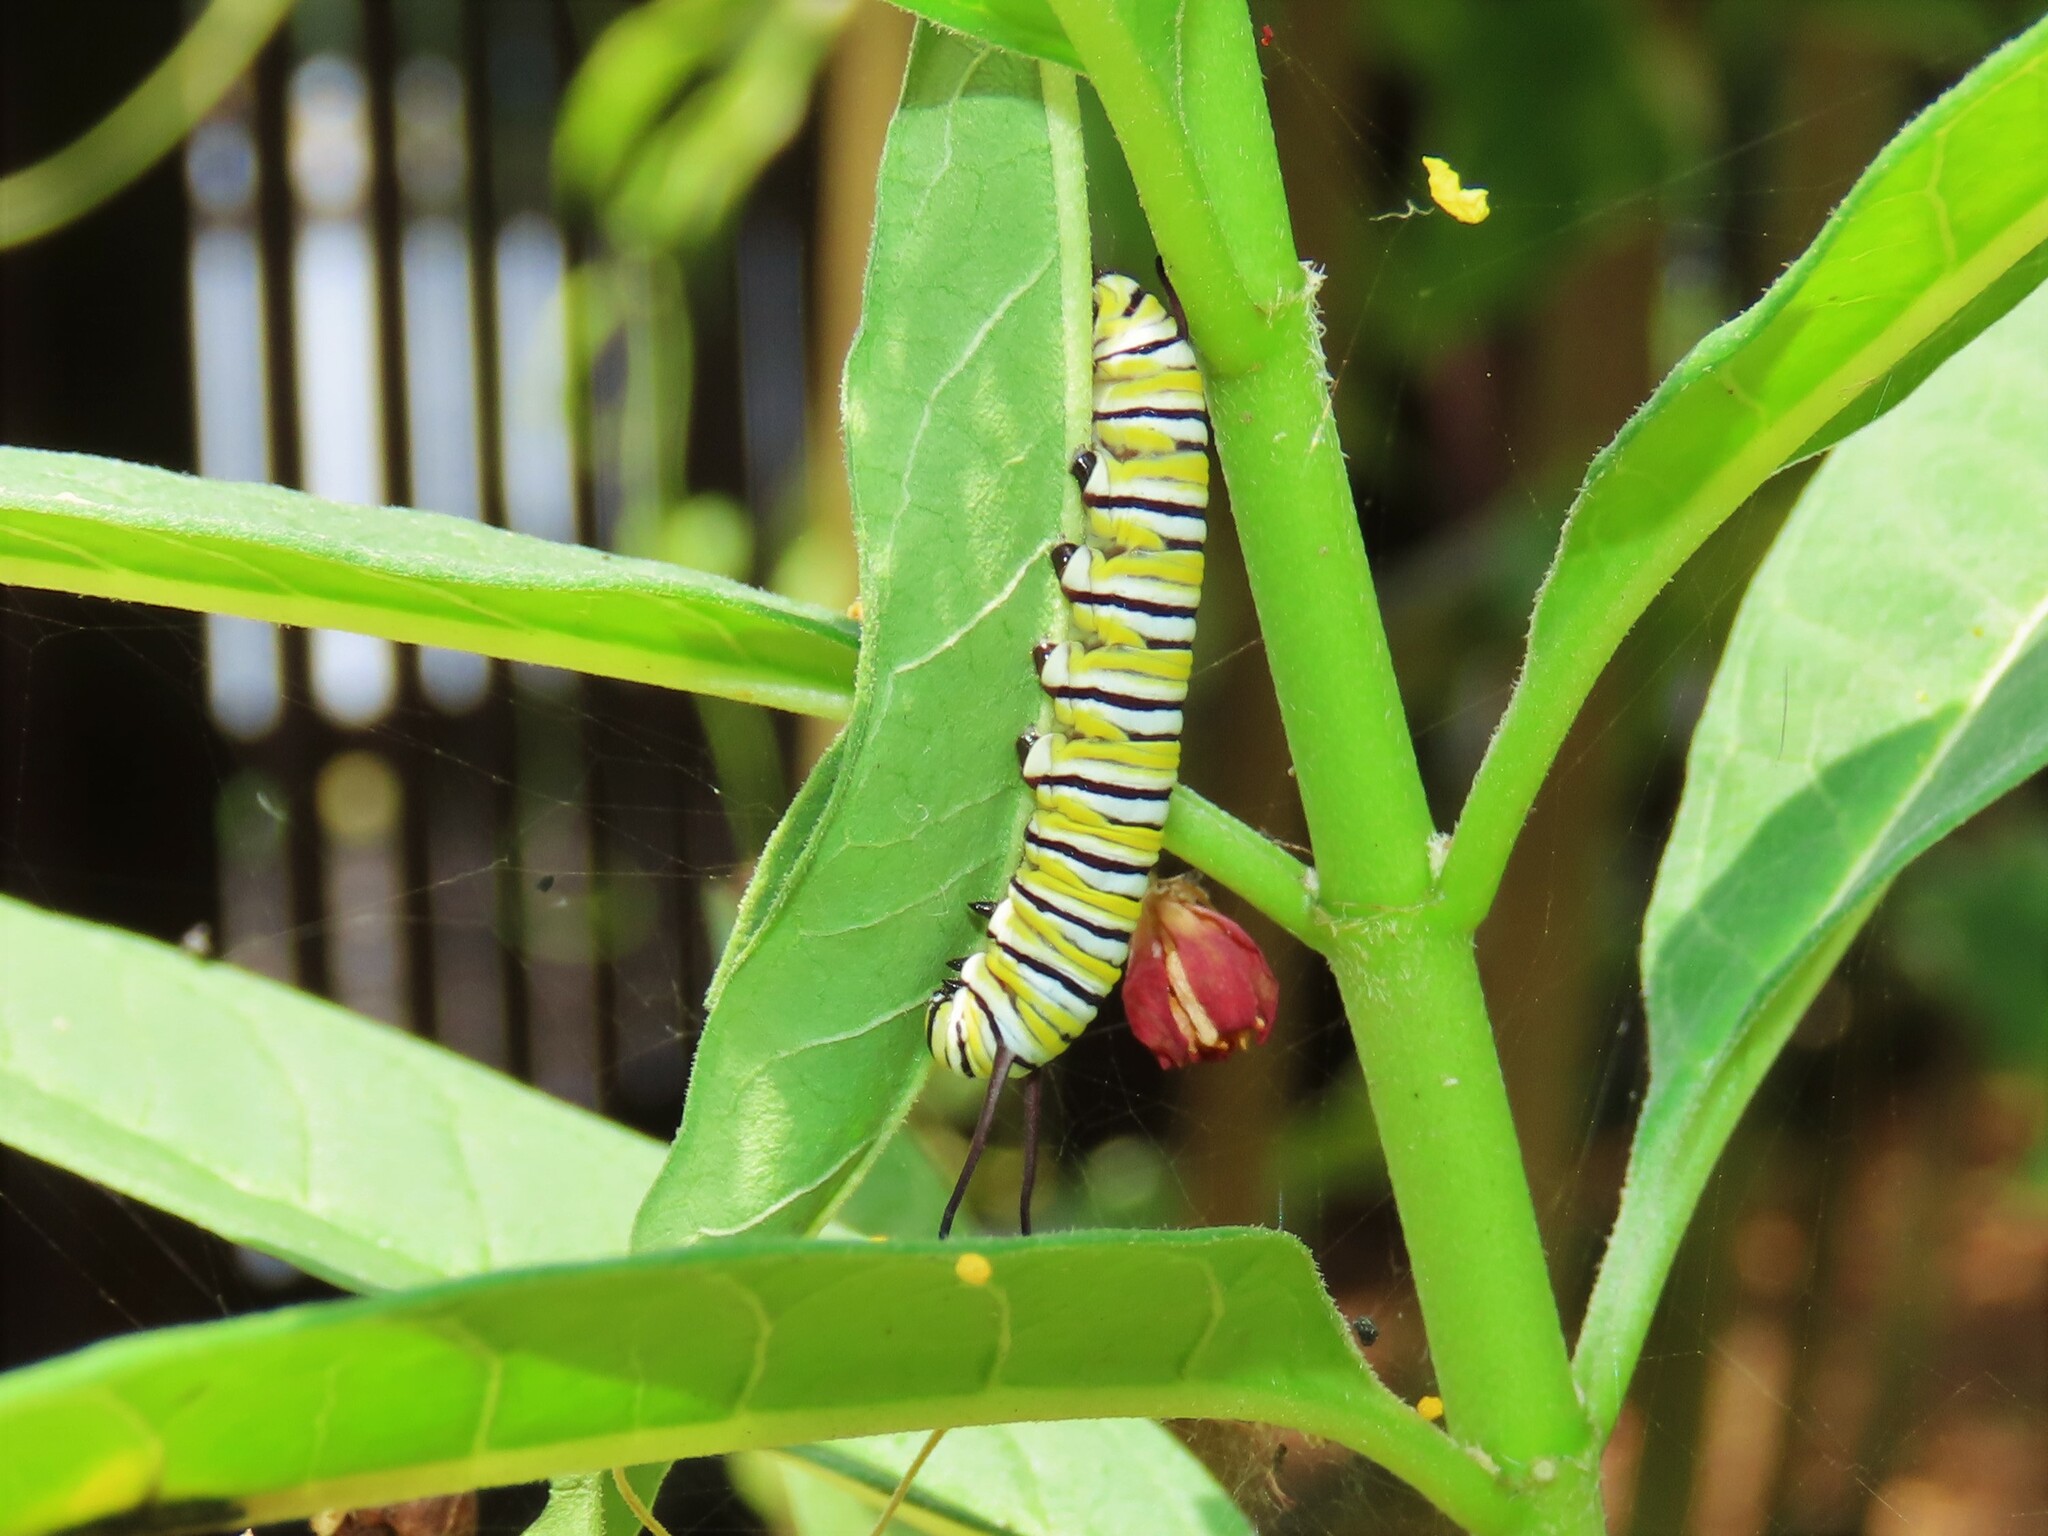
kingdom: Animalia
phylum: Arthropoda
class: Insecta
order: Lepidoptera
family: Nymphalidae
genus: Danaus
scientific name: Danaus plexippus
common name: Monarch
